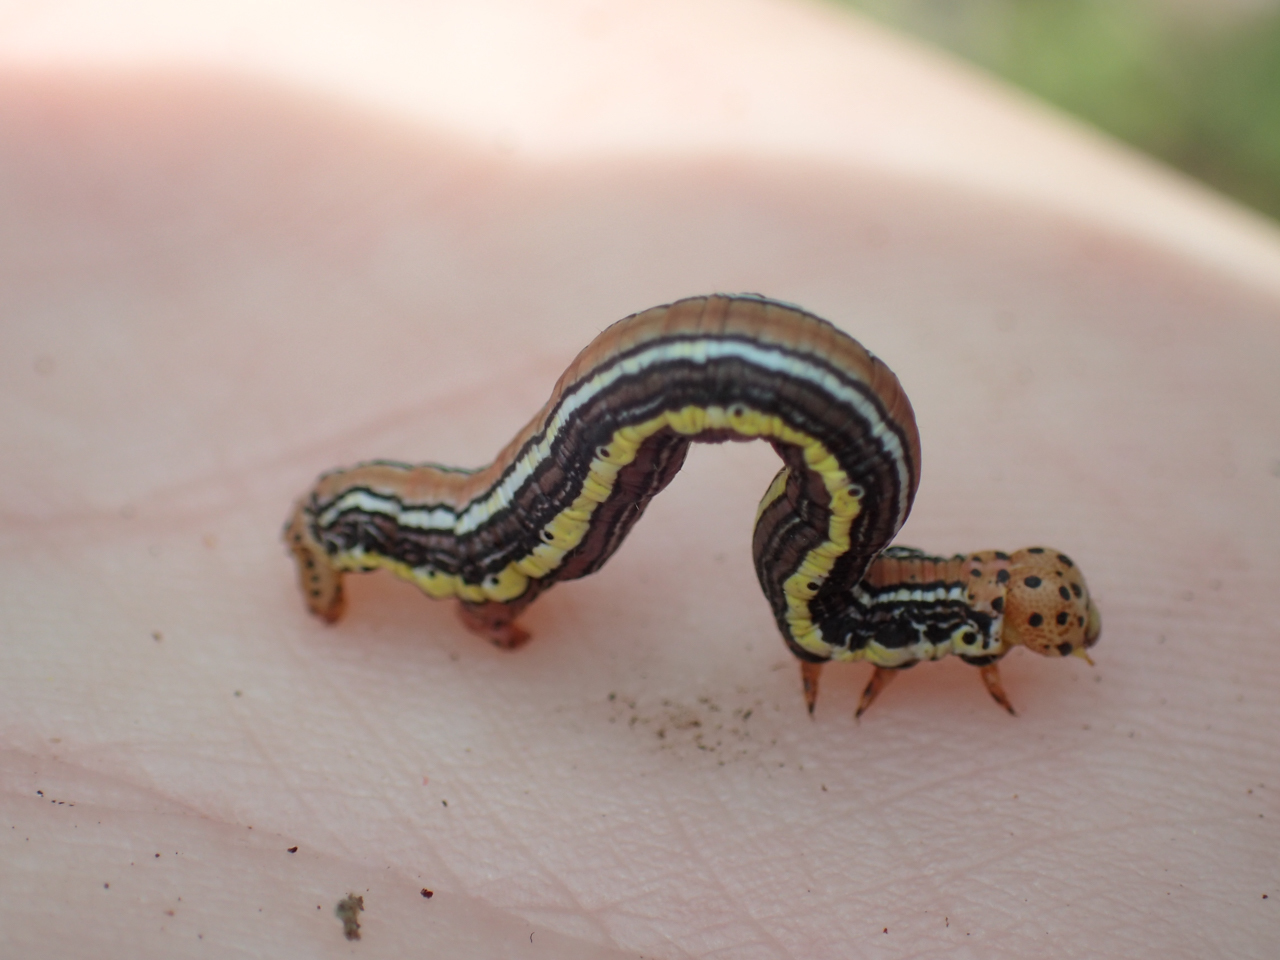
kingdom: Animalia
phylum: Arthropoda
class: Insecta
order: Lepidoptera
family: Geometridae
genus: Nepytia
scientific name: Nepytia semiclusaria
